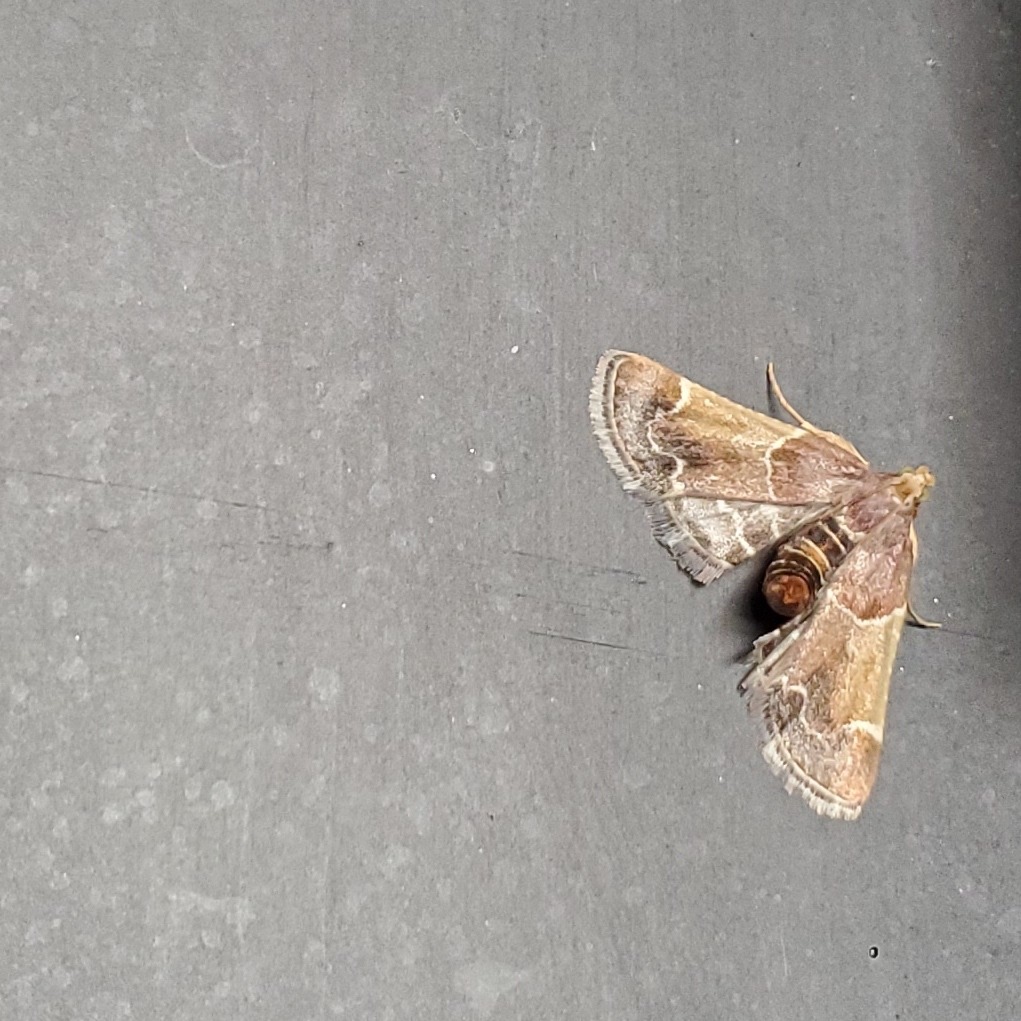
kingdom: Animalia
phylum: Arthropoda
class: Insecta
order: Lepidoptera
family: Pyralidae
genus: Pyralis
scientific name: Pyralis farinalis
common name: Meal moth
